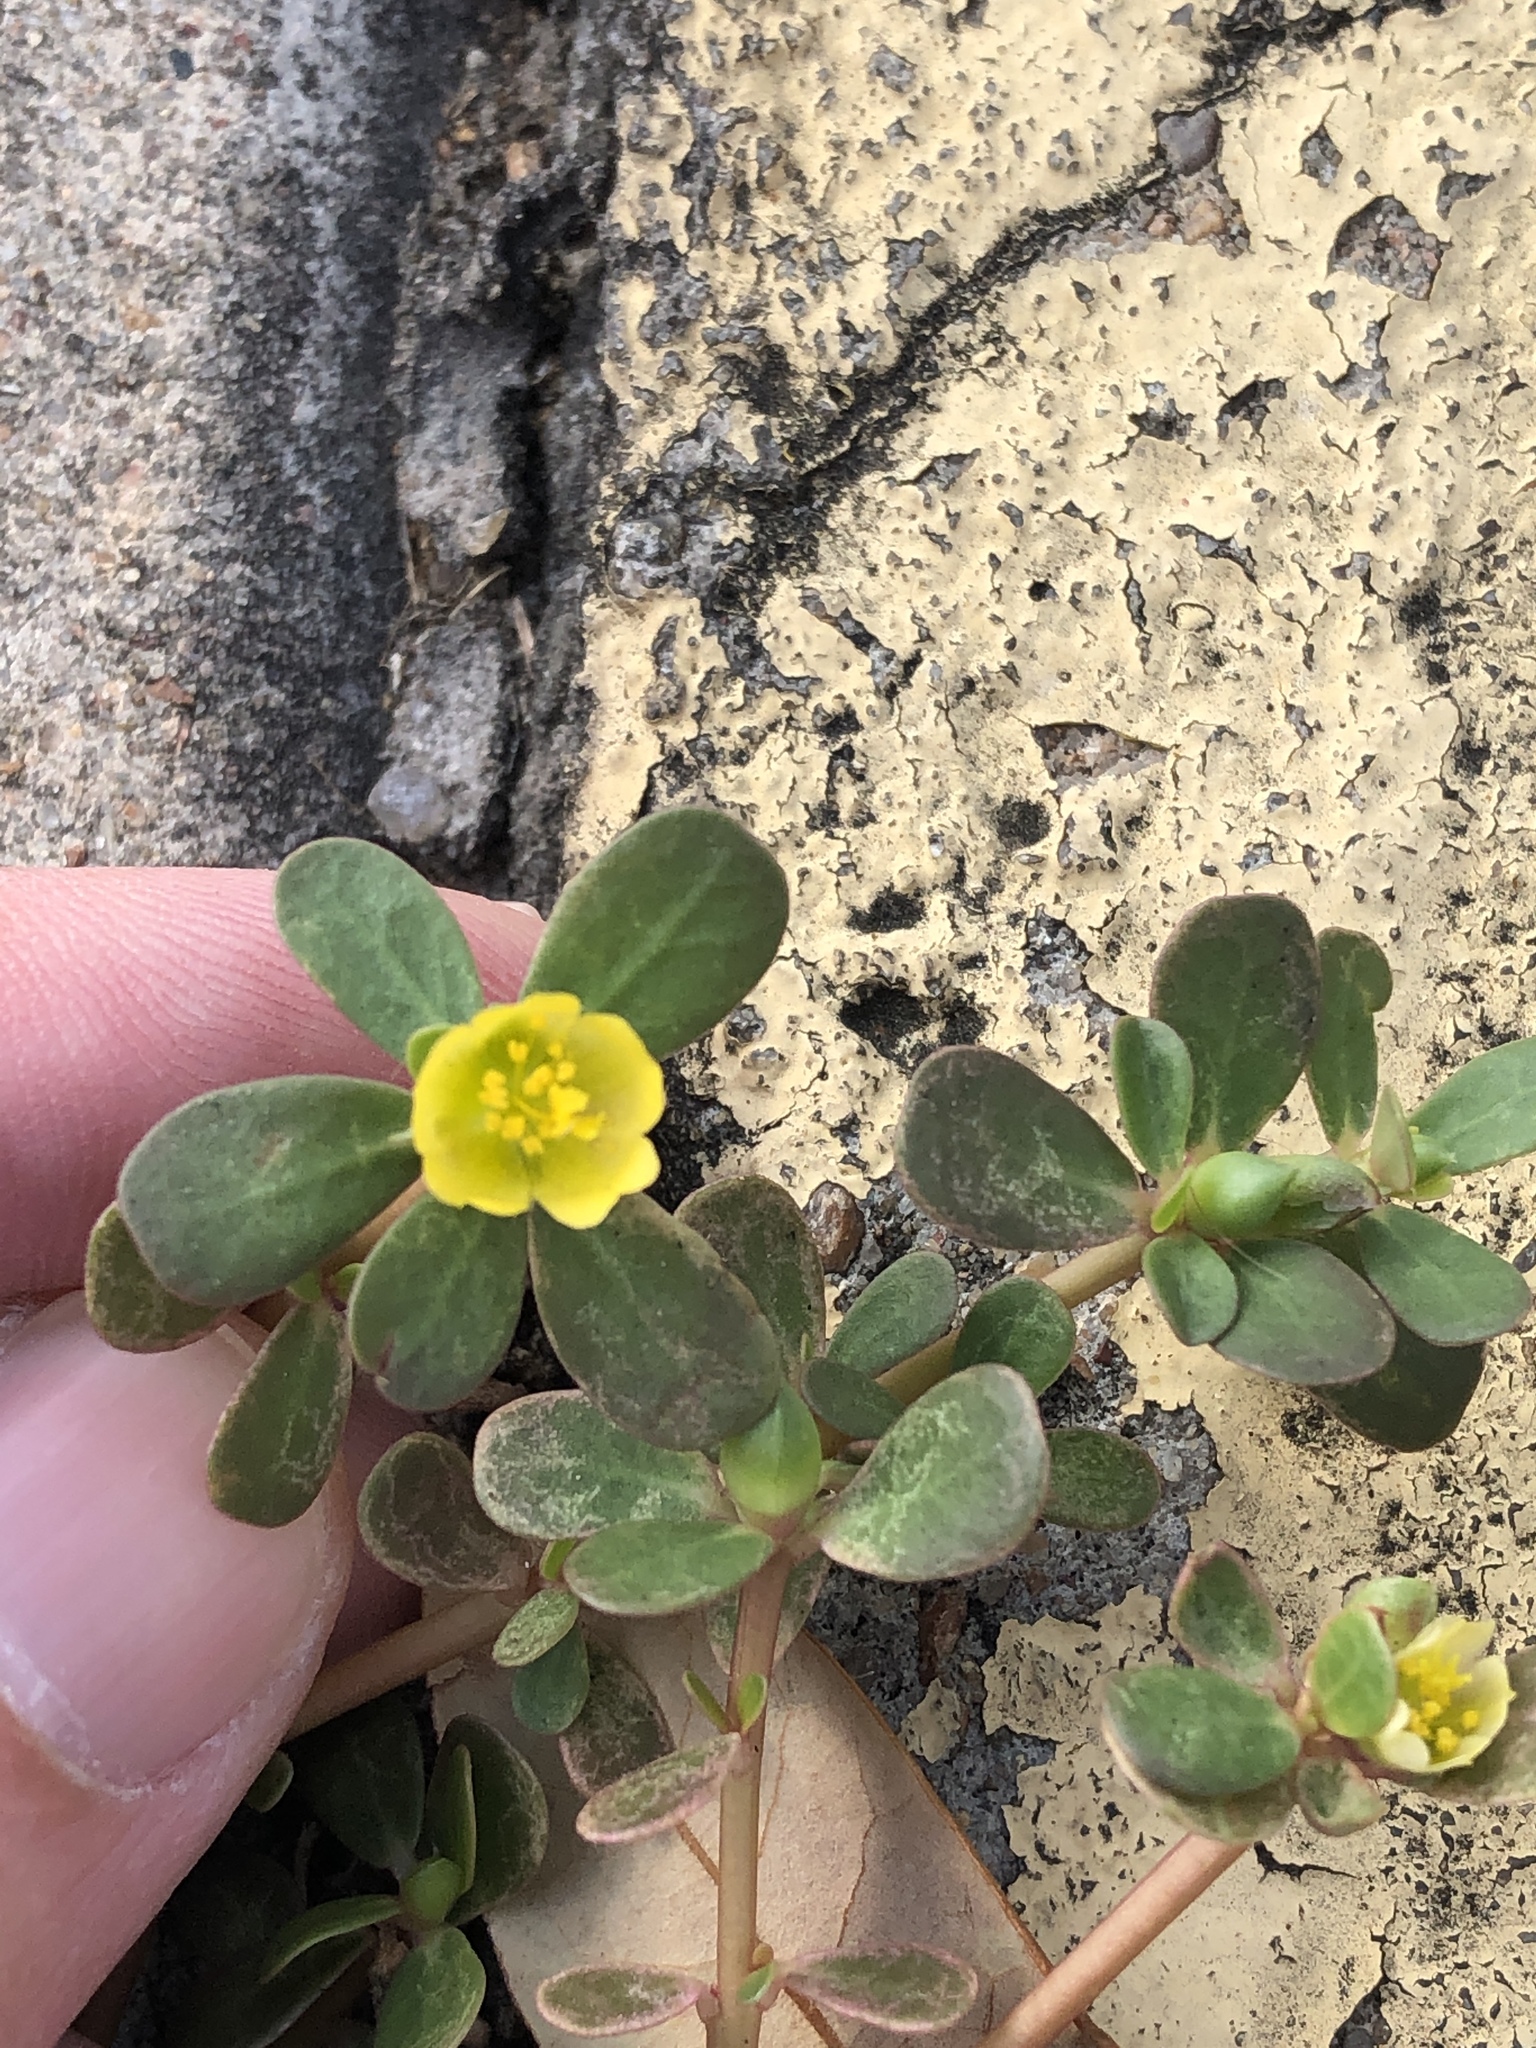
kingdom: Plantae
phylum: Tracheophyta
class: Magnoliopsida
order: Caryophyllales
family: Portulacaceae
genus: Portulaca
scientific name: Portulaca oleracea
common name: Common purslane
